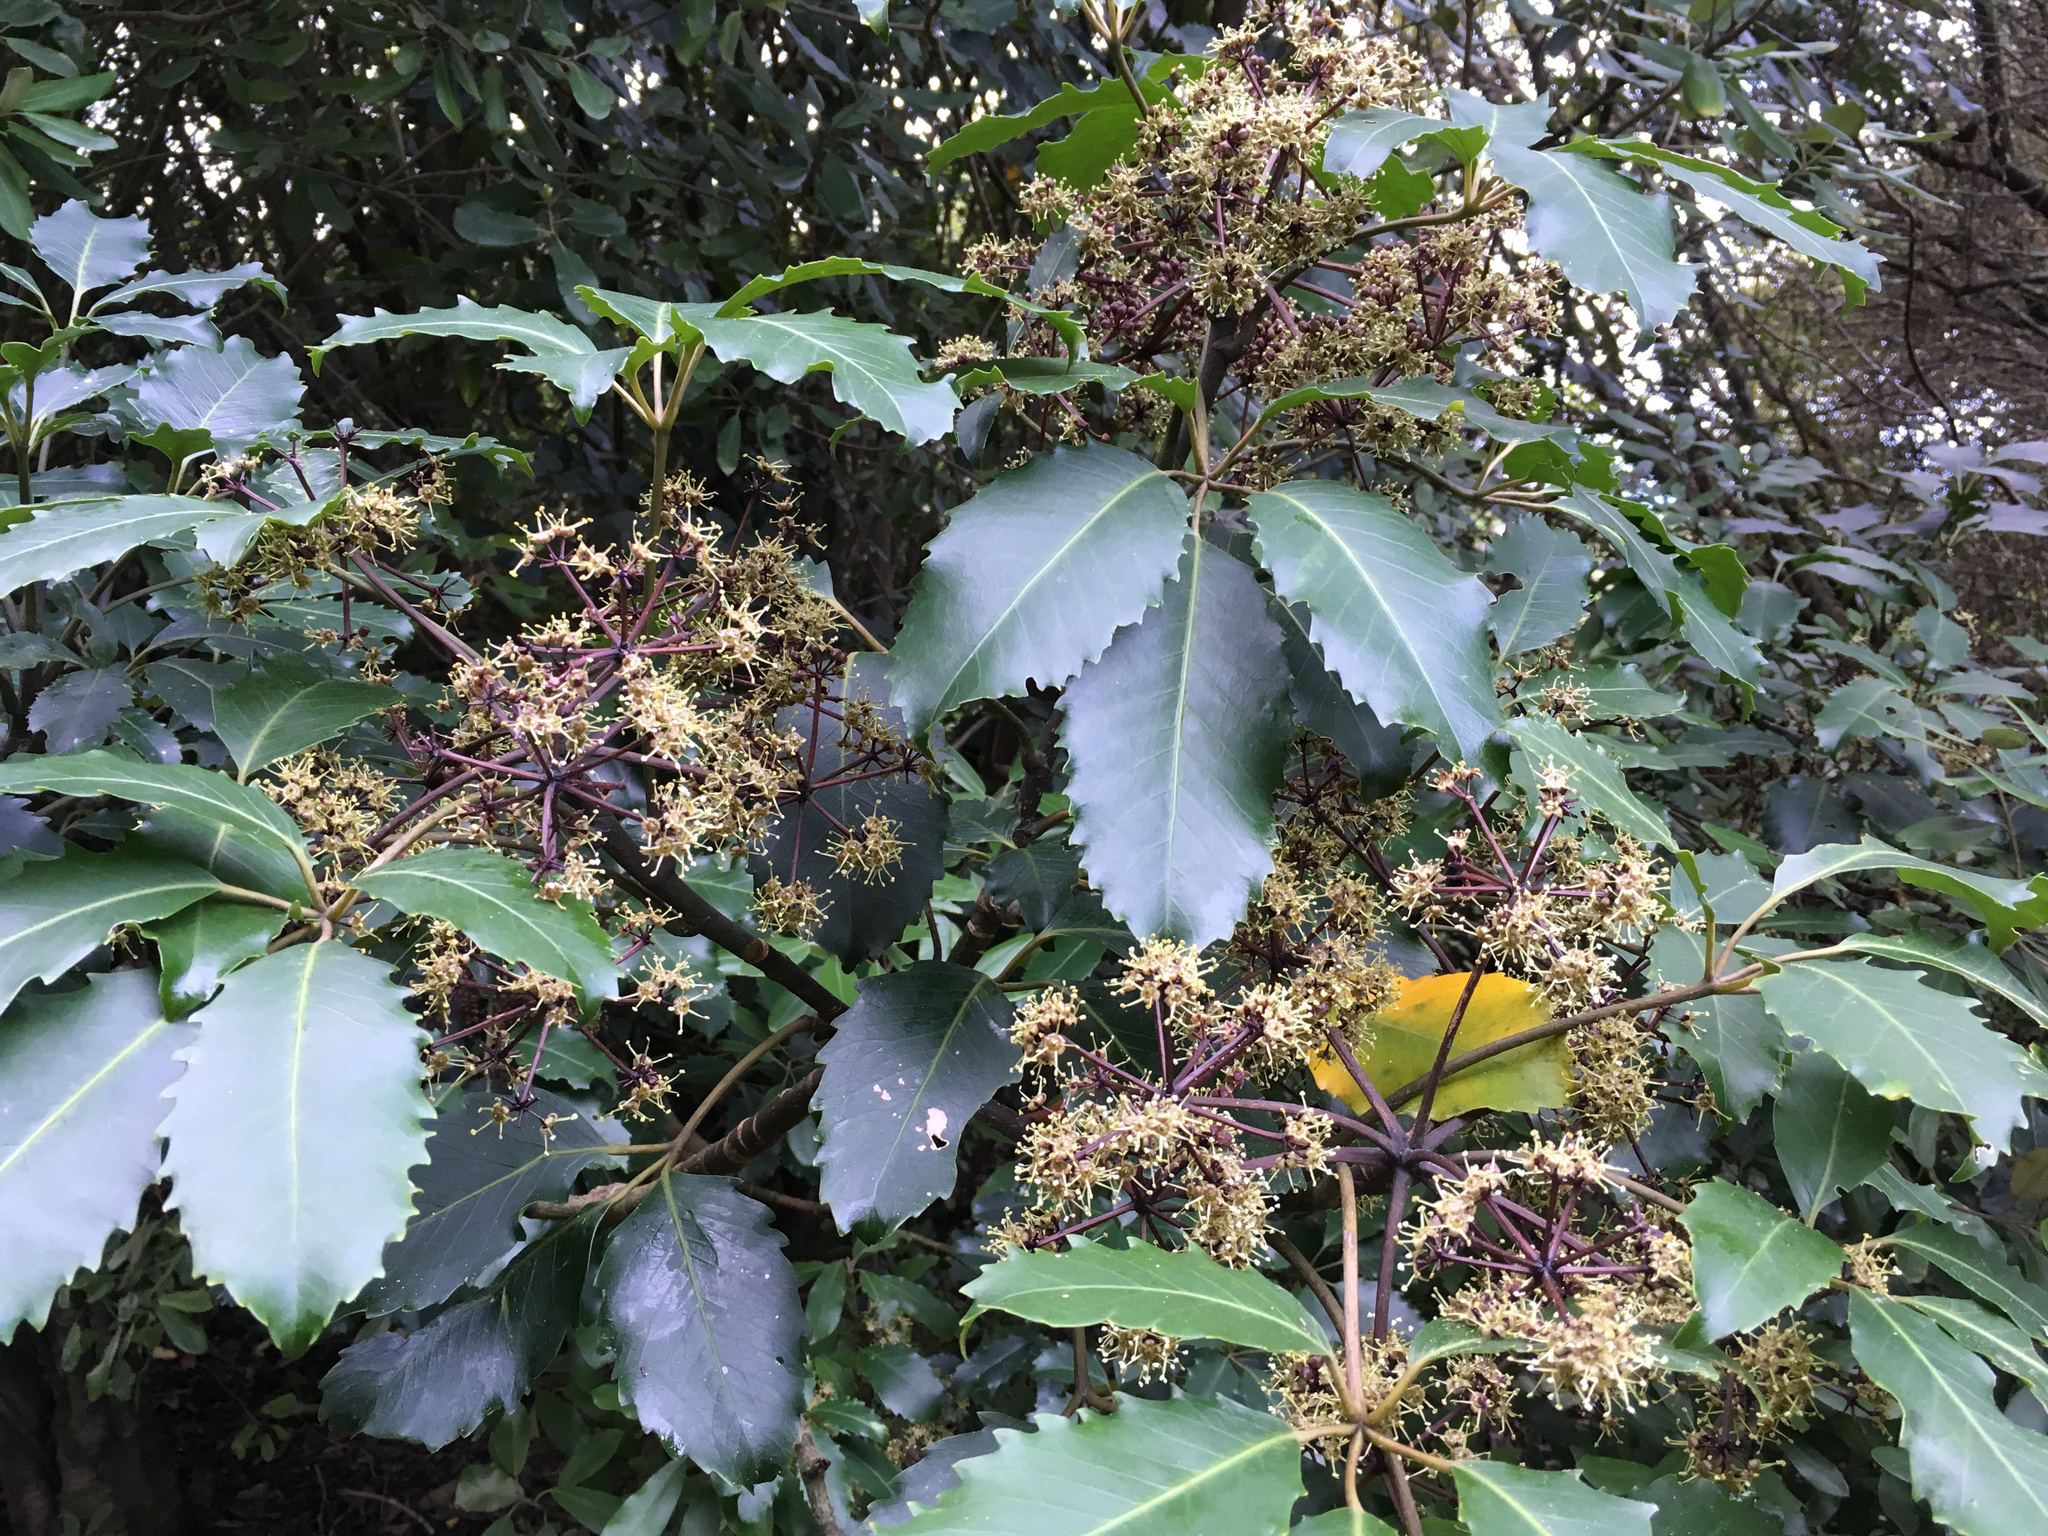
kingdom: Plantae
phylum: Tracheophyta
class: Magnoliopsida
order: Apiales
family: Araliaceae
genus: Neopanax
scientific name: Neopanax arboreus
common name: Five-fingers
